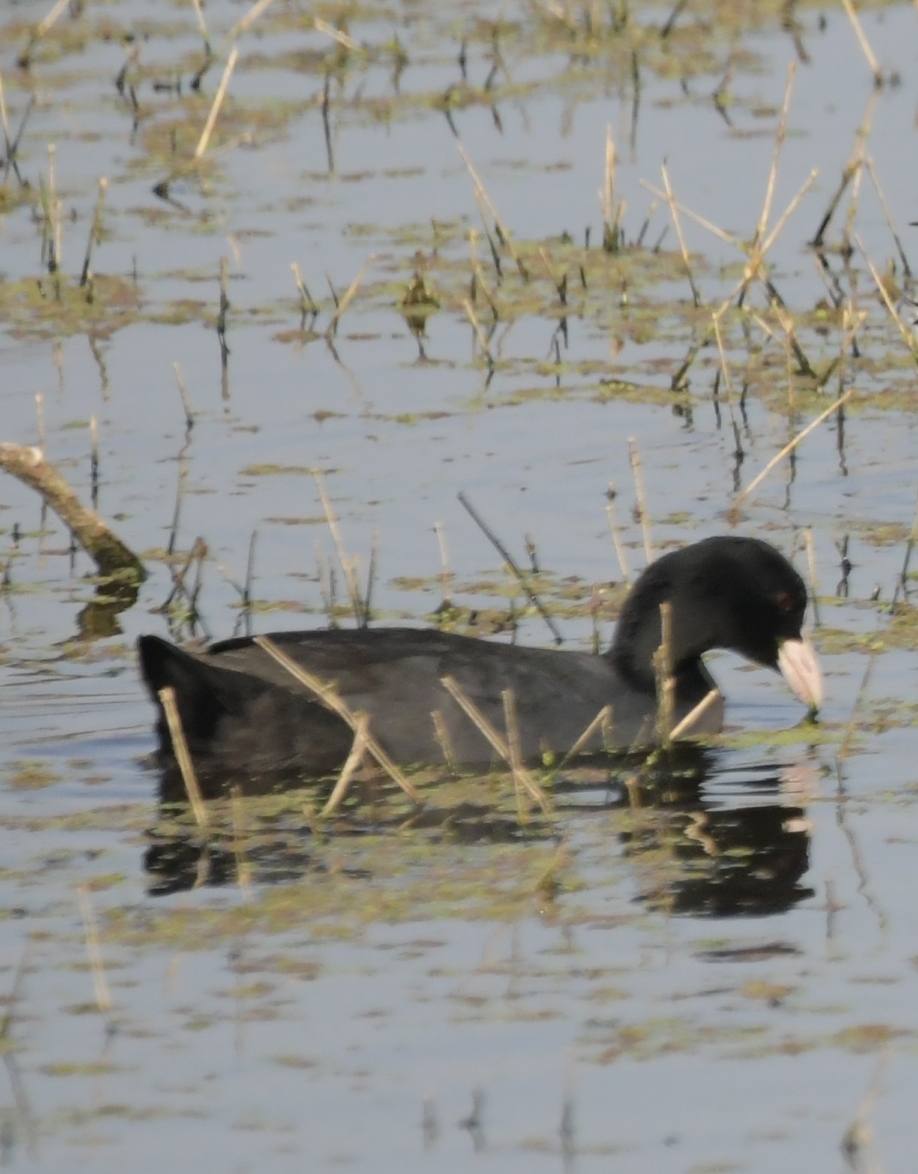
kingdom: Animalia
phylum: Chordata
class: Aves
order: Gruiformes
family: Rallidae
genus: Fulica
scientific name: Fulica atra
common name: Eurasian coot
